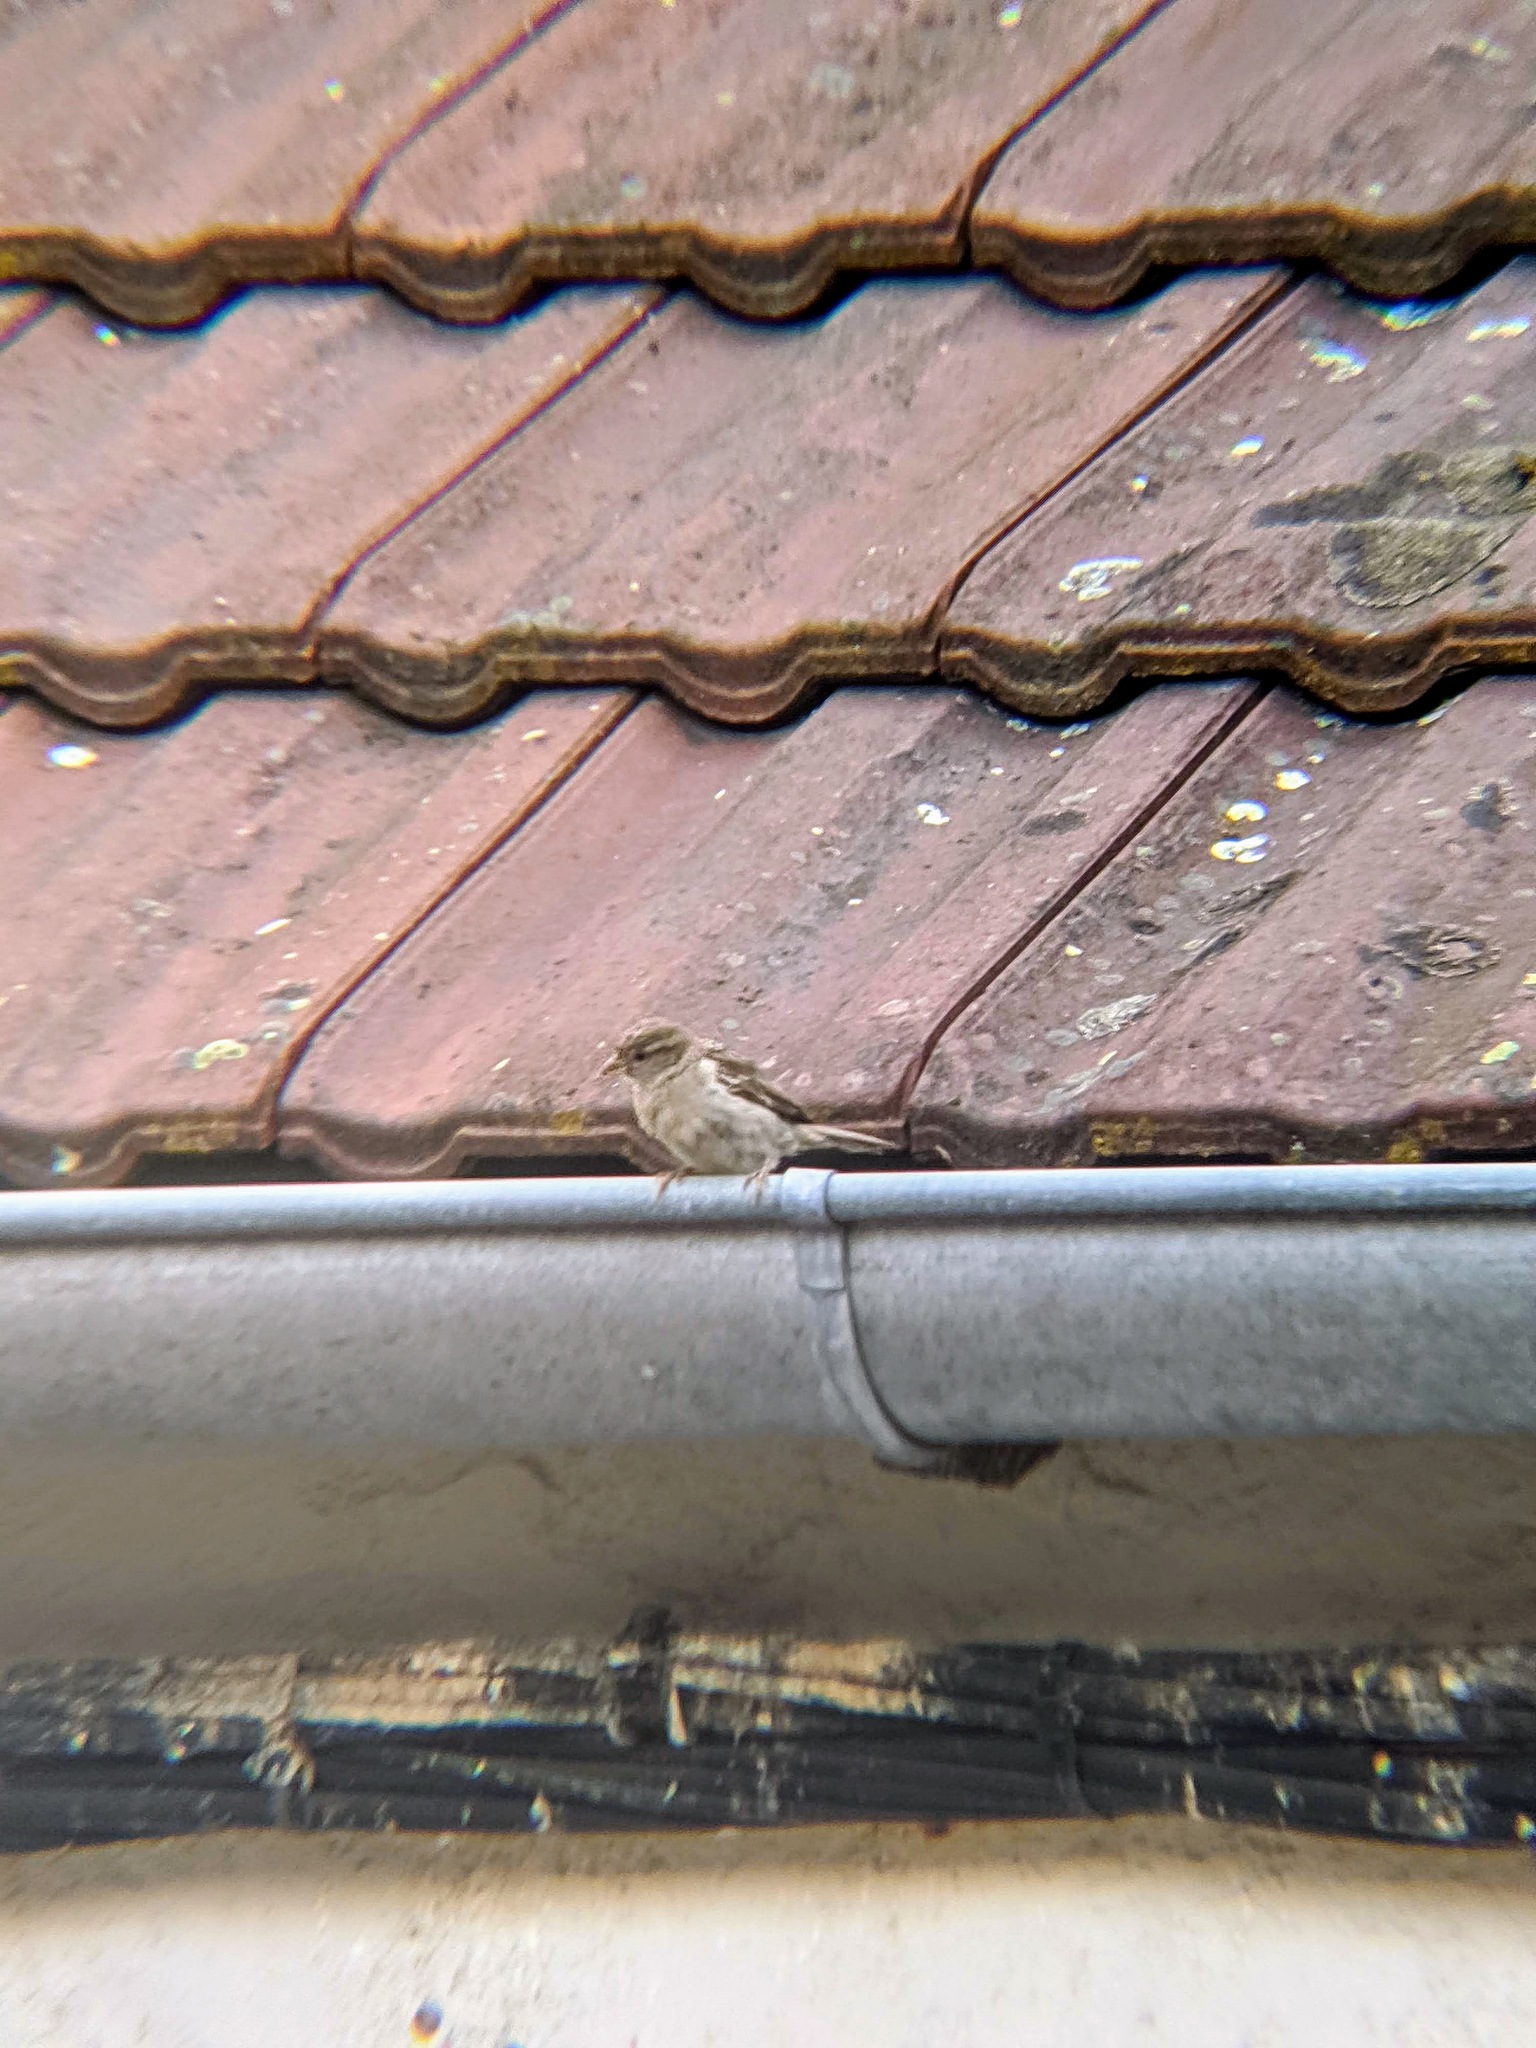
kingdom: Animalia
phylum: Chordata
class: Aves
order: Passeriformes
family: Passeridae
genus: Passer
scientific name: Passer domesticus
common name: House sparrow
